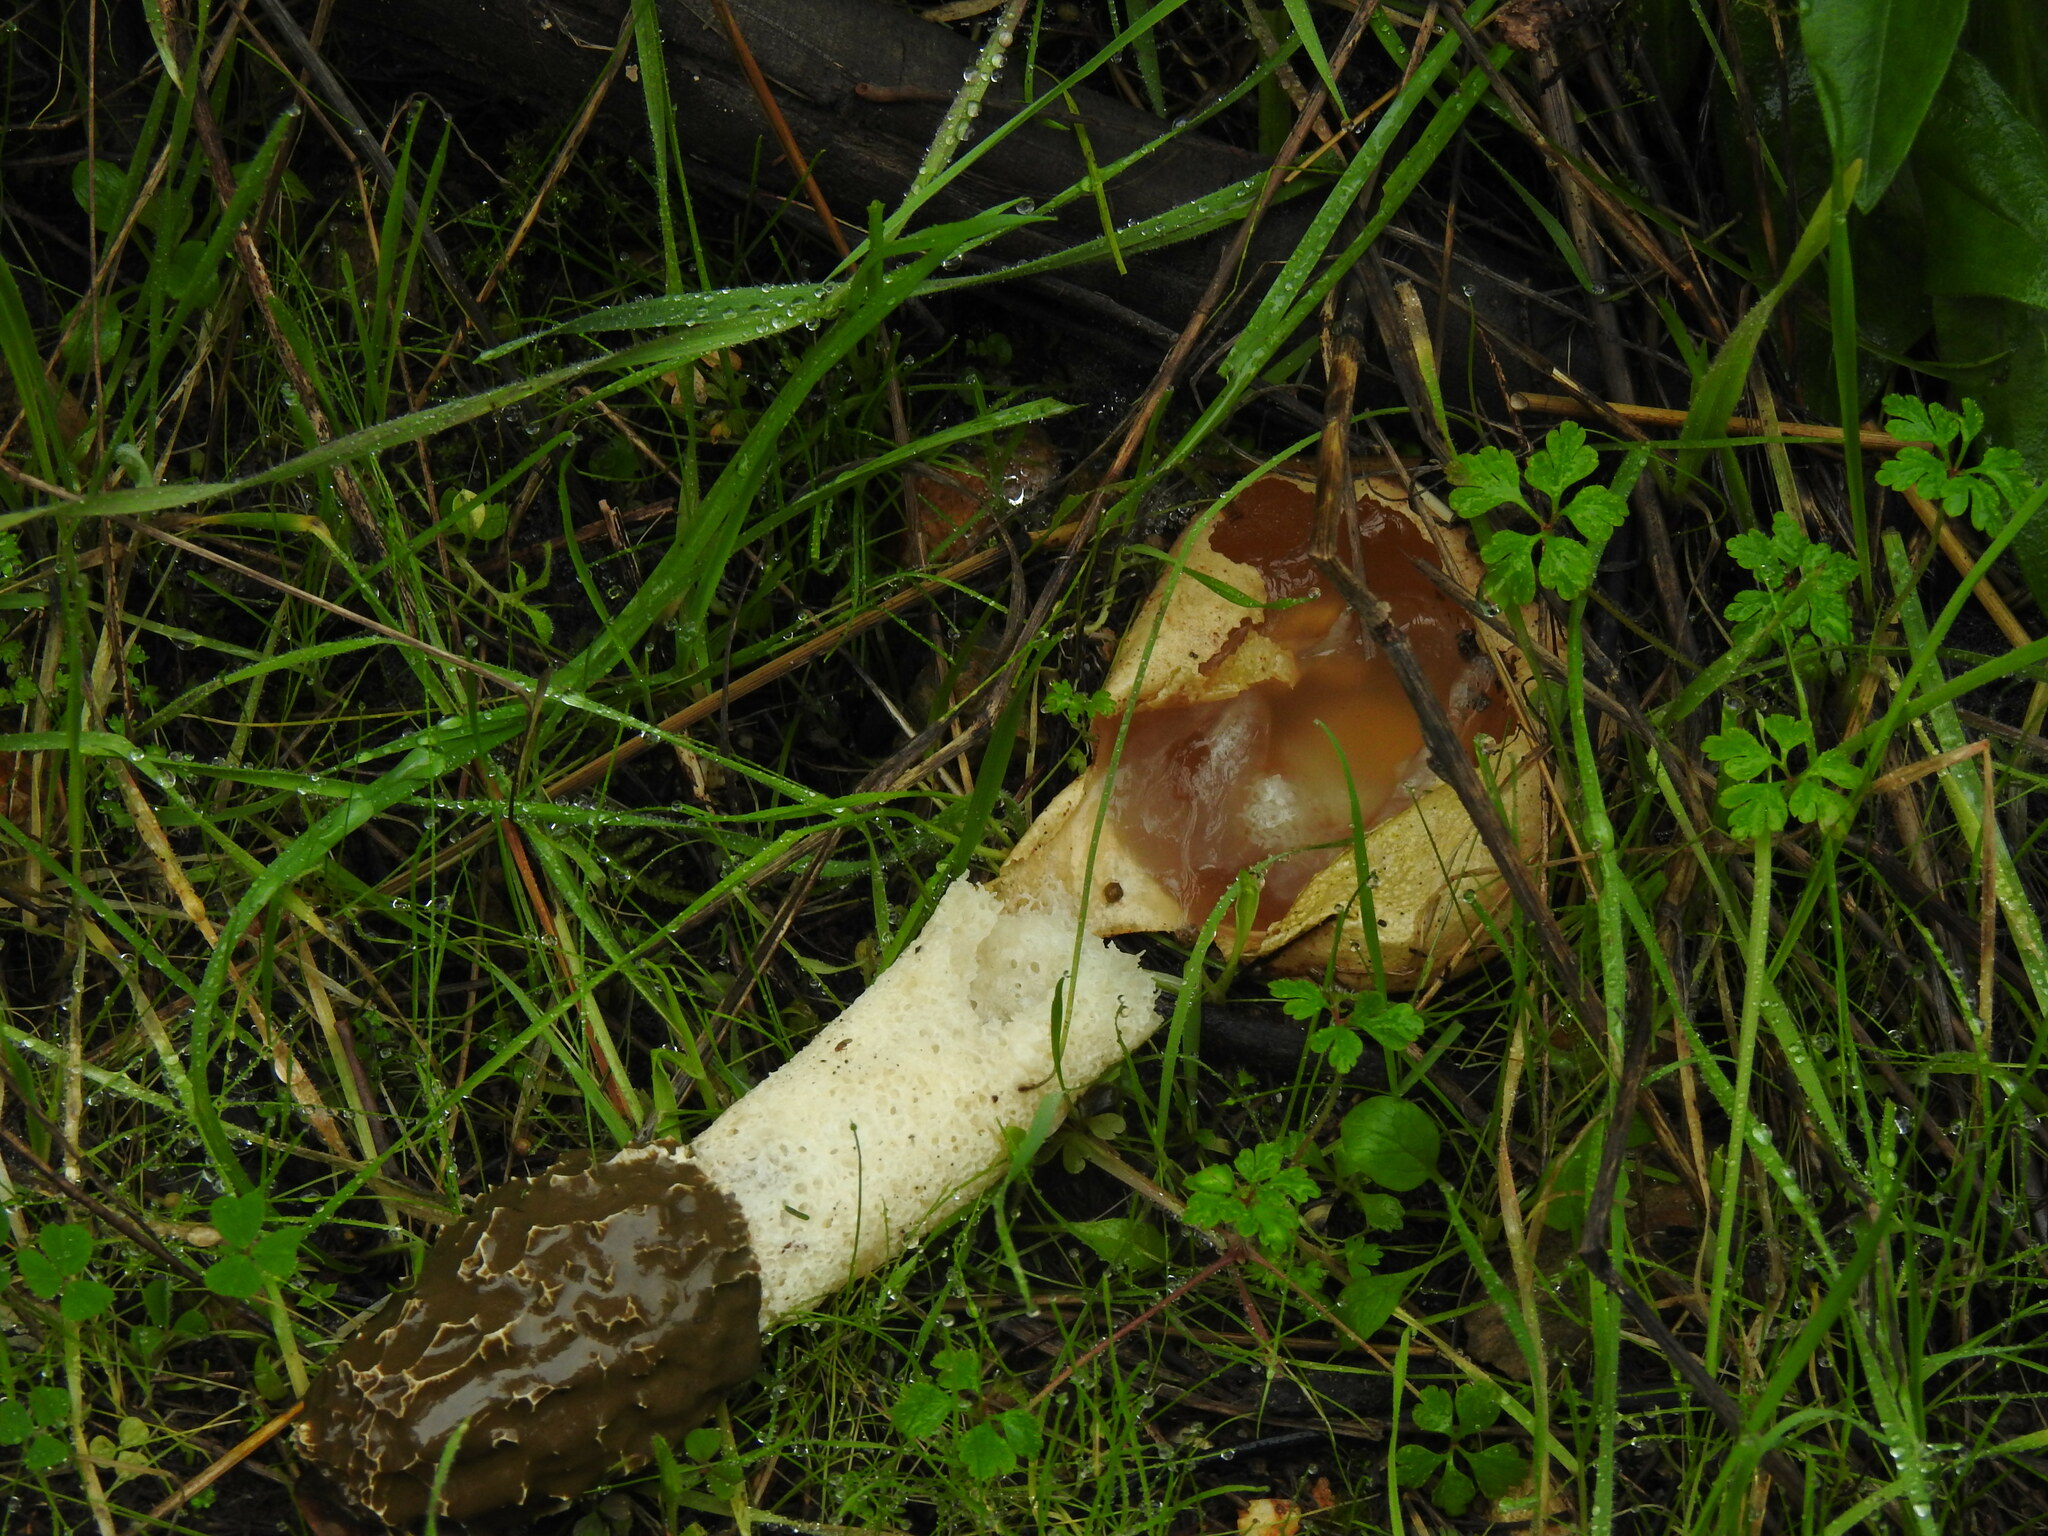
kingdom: Fungi
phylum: Basidiomycota
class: Agaricomycetes
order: Phallales
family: Phallaceae
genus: Phallus
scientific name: Phallus impudicus
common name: Common stinkhorn
